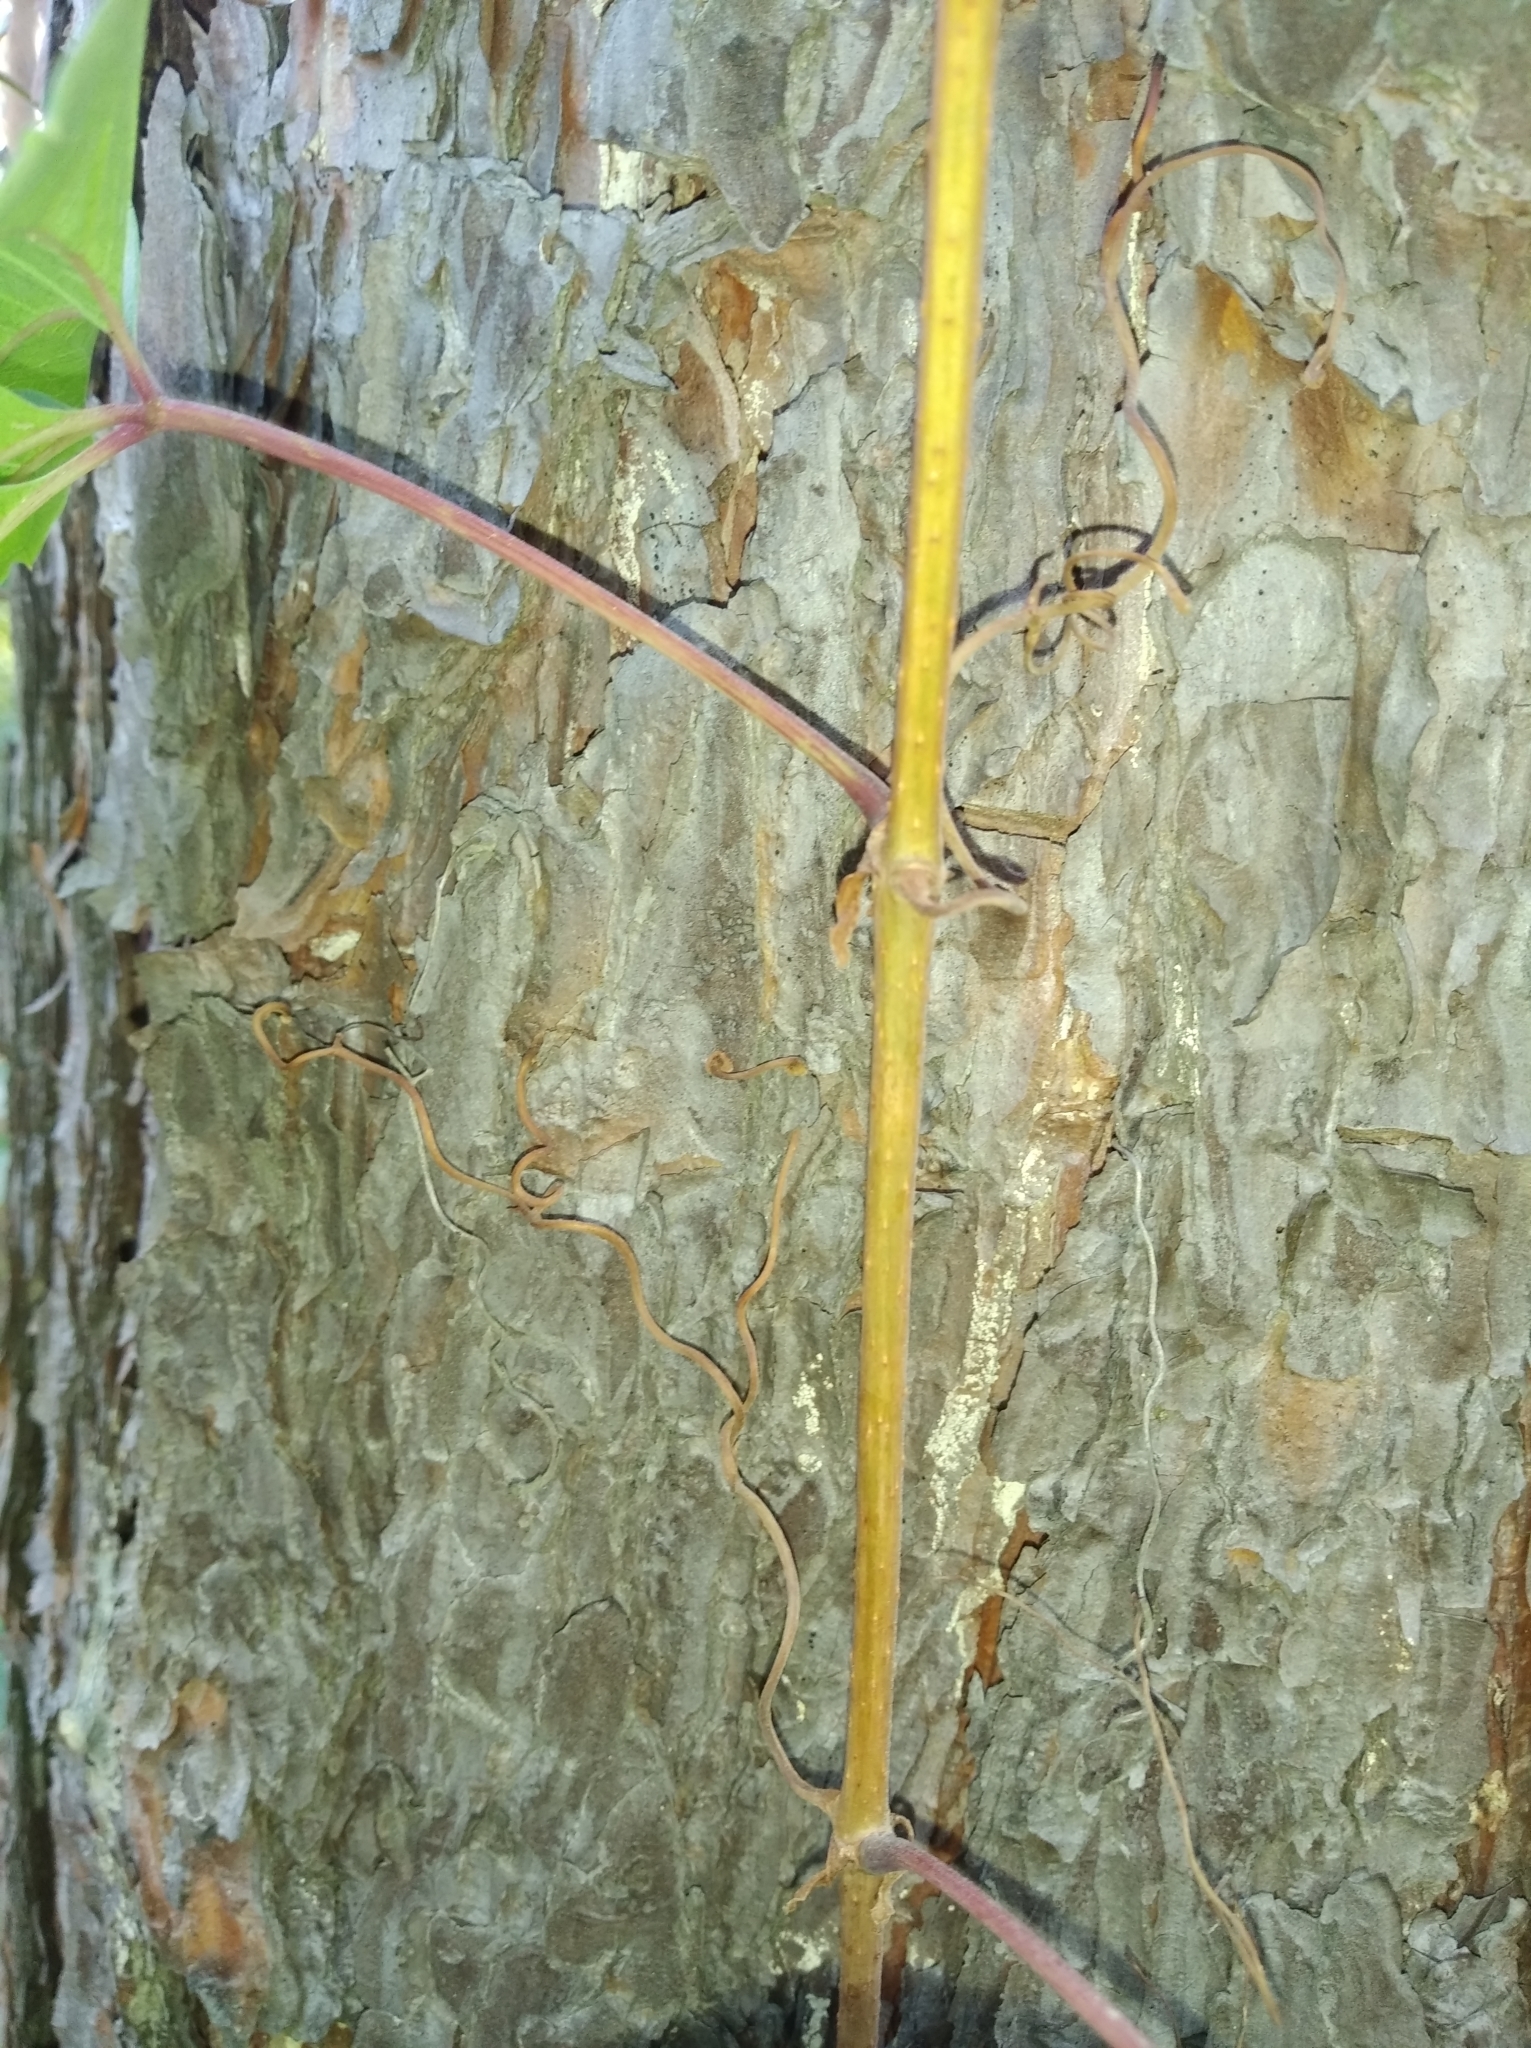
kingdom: Plantae
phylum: Tracheophyta
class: Magnoliopsida
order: Vitales
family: Vitaceae
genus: Parthenocissus
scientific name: Parthenocissus inserta
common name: False virginia-creeper
